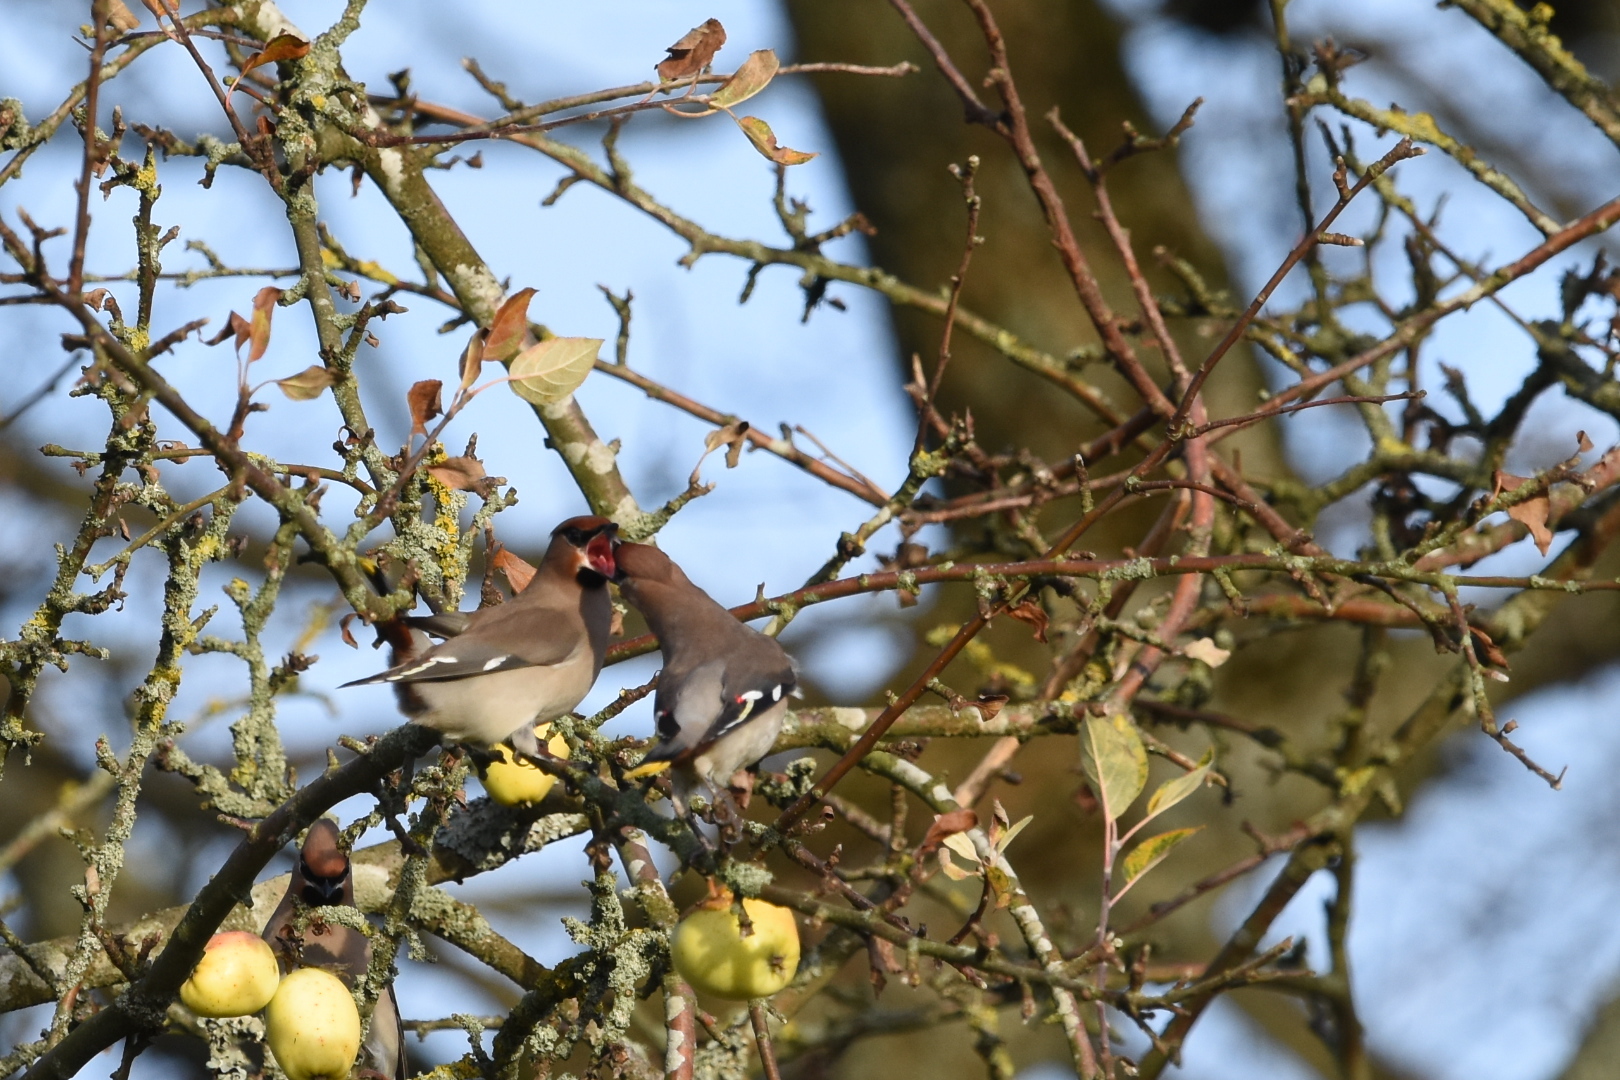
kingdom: Animalia
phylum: Chordata
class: Aves
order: Passeriformes
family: Bombycillidae
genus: Bombycilla
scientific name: Bombycilla garrulus
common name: Bohemian waxwing
